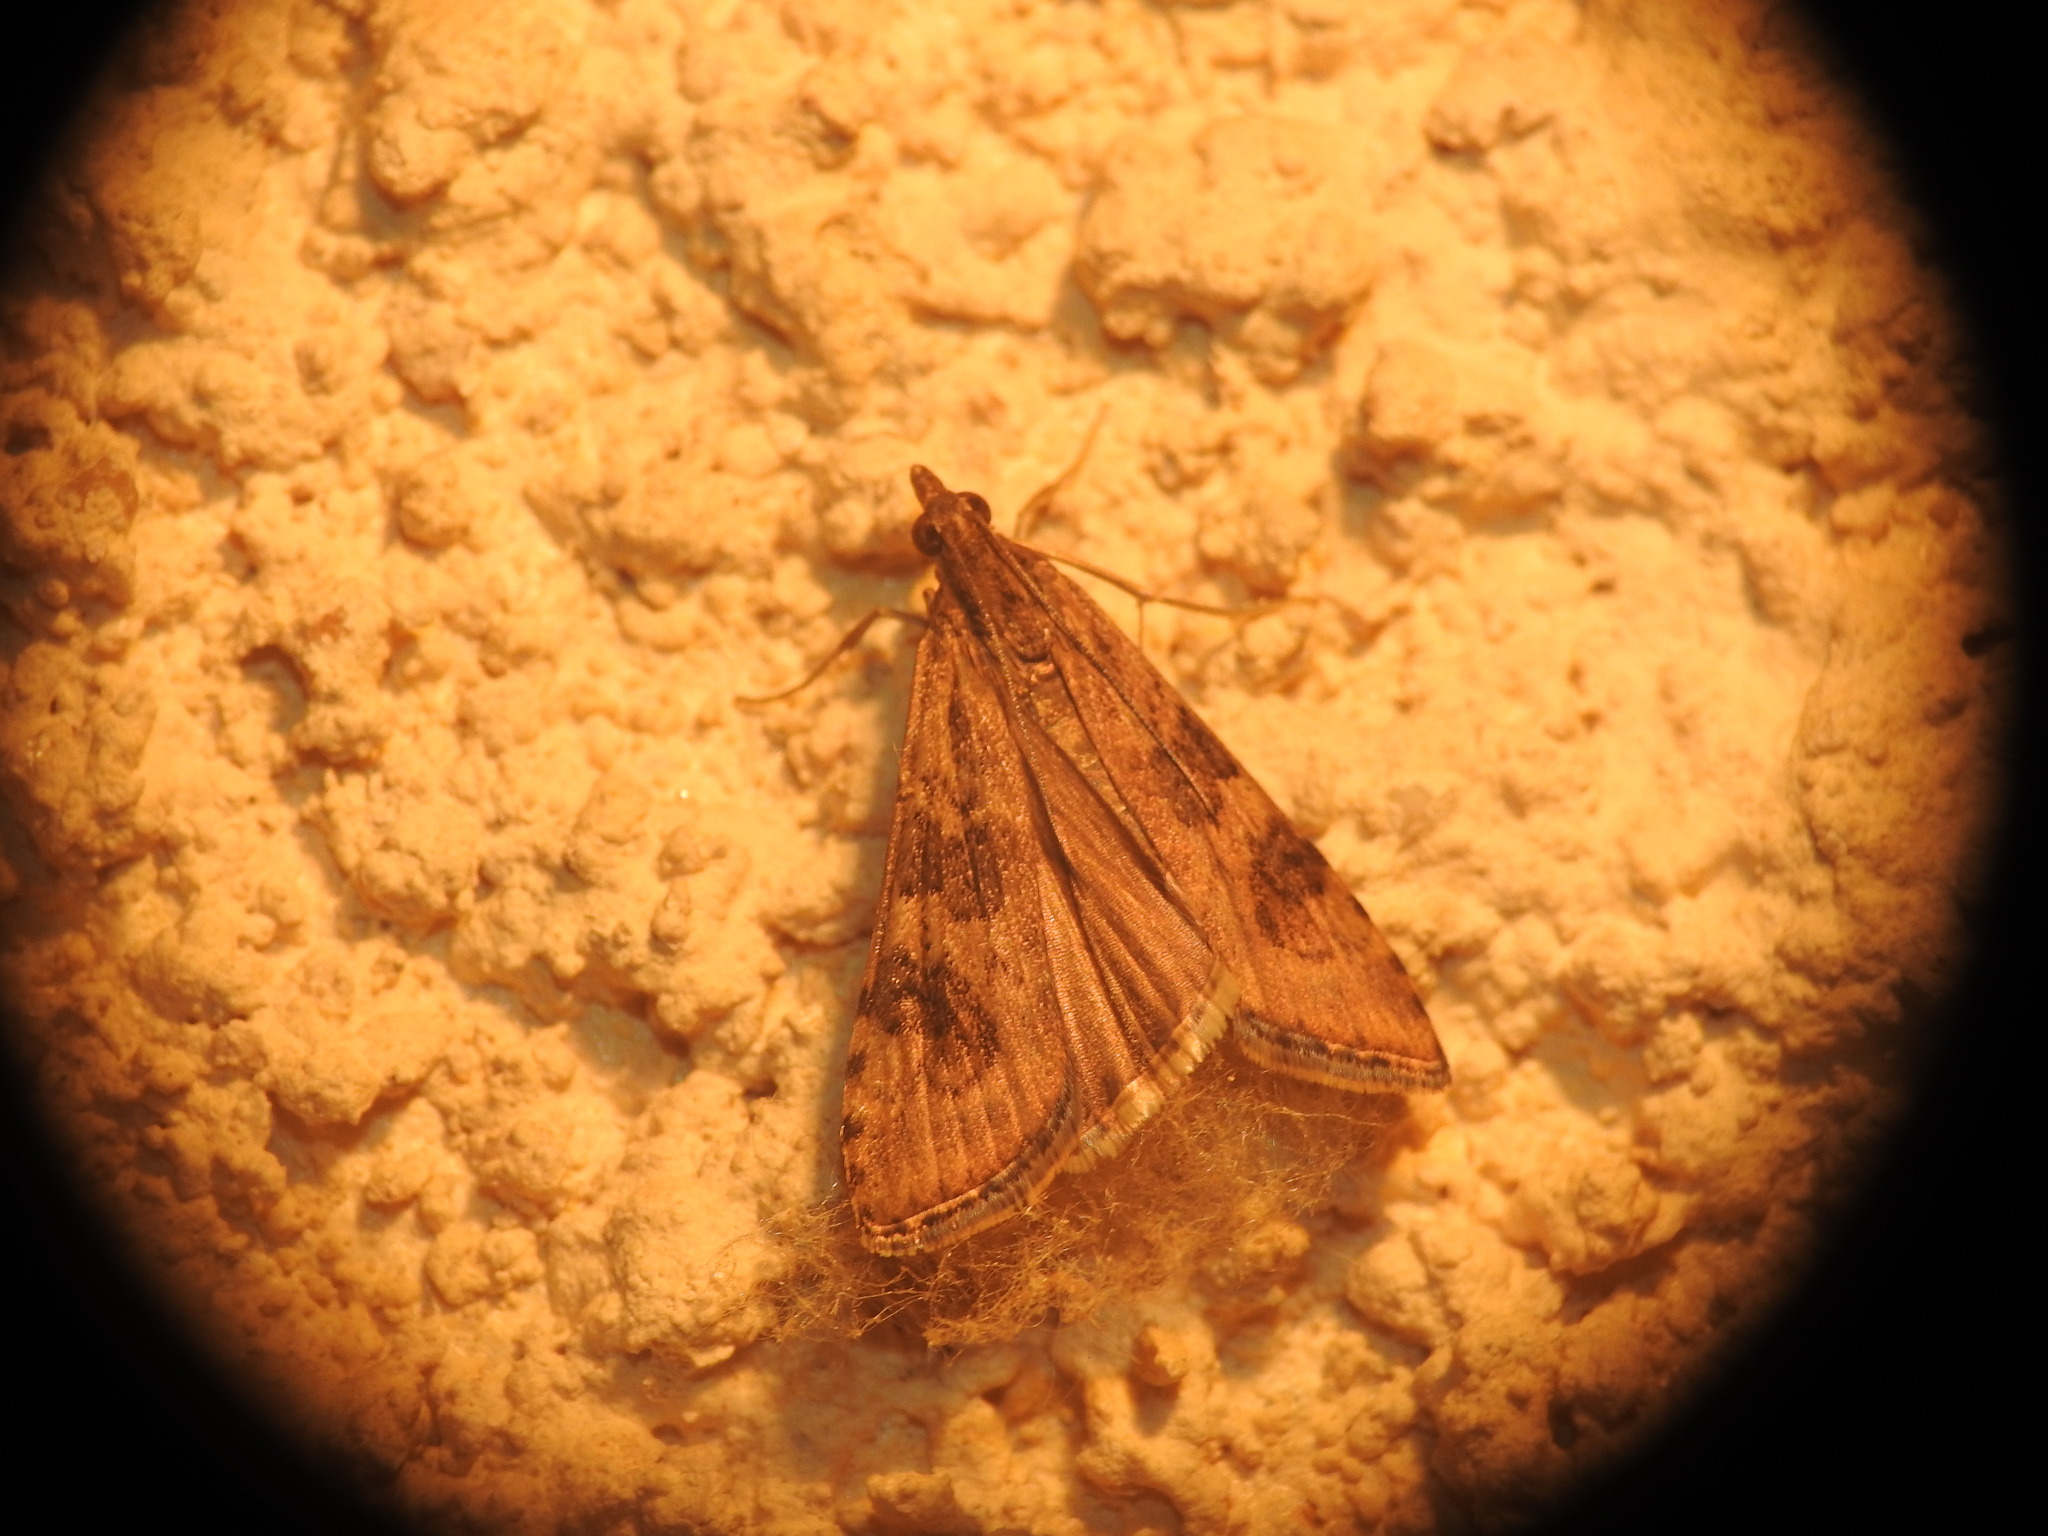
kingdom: Animalia
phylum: Arthropoda
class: Insecta
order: Lepidoptera
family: Crambidae
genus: Nomophila
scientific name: Nomophila noctuella
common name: Rush veneer
